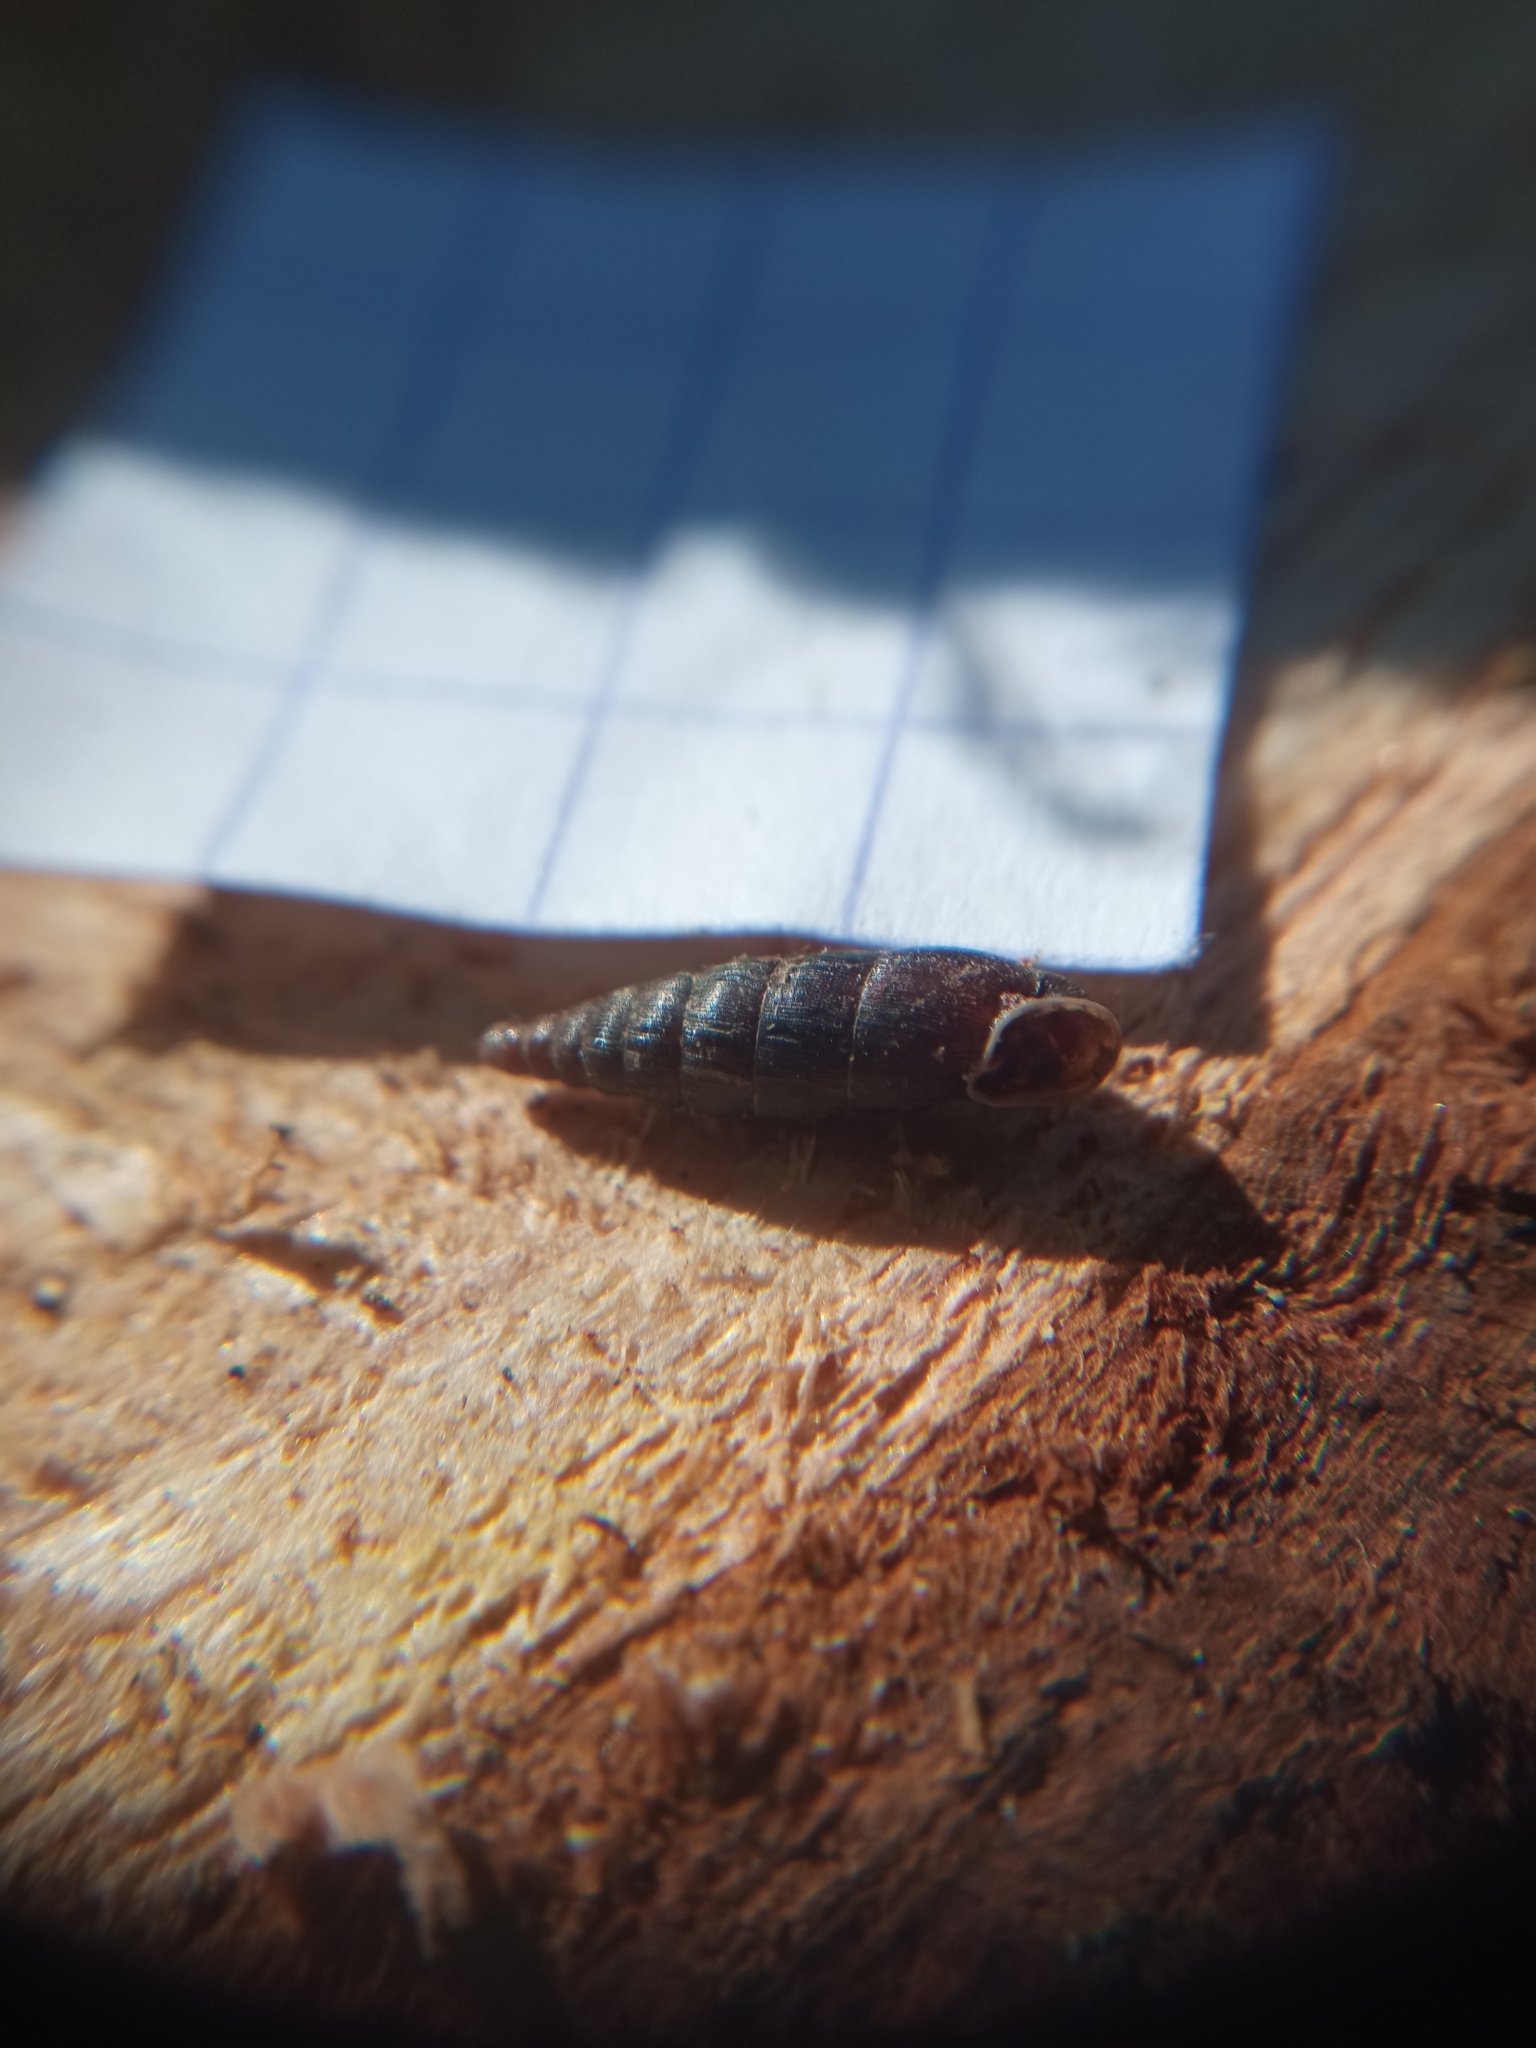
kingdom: Animalia
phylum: Mollusca
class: Gastropoda
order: Stylommatophora
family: Clausiliidae
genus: Clausilia
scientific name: Clausilia bidentata
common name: Two-toothed door snail
